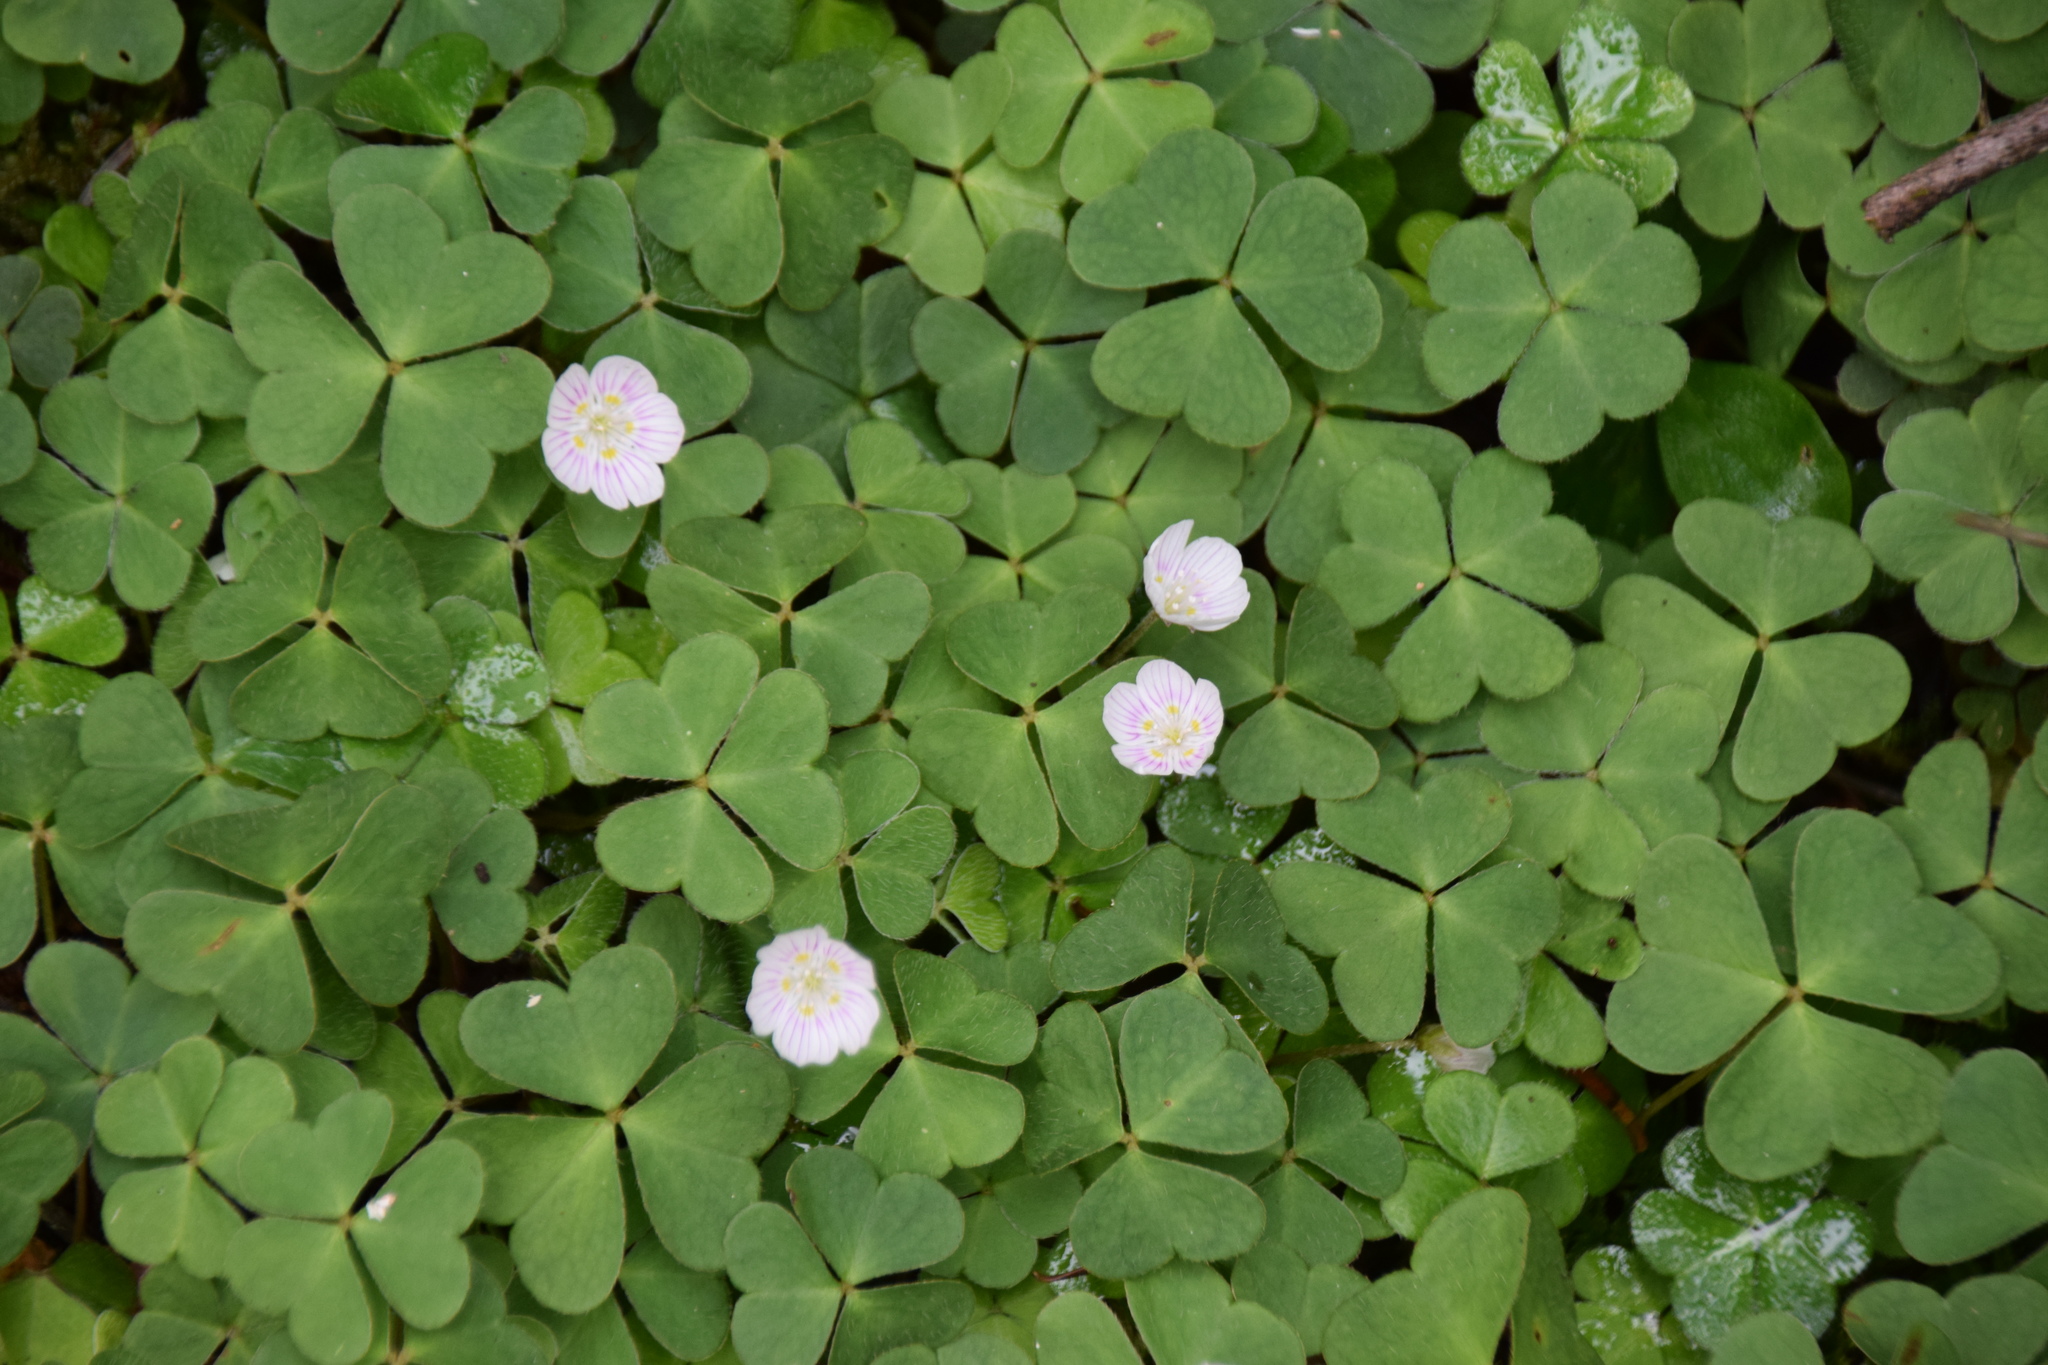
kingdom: Plantae
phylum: Tracheophyta
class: Magnoliopsida
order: Oxalidales
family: Oxalidaceae
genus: Oxalis
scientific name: Oxalis montana
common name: American wood-sorrel
